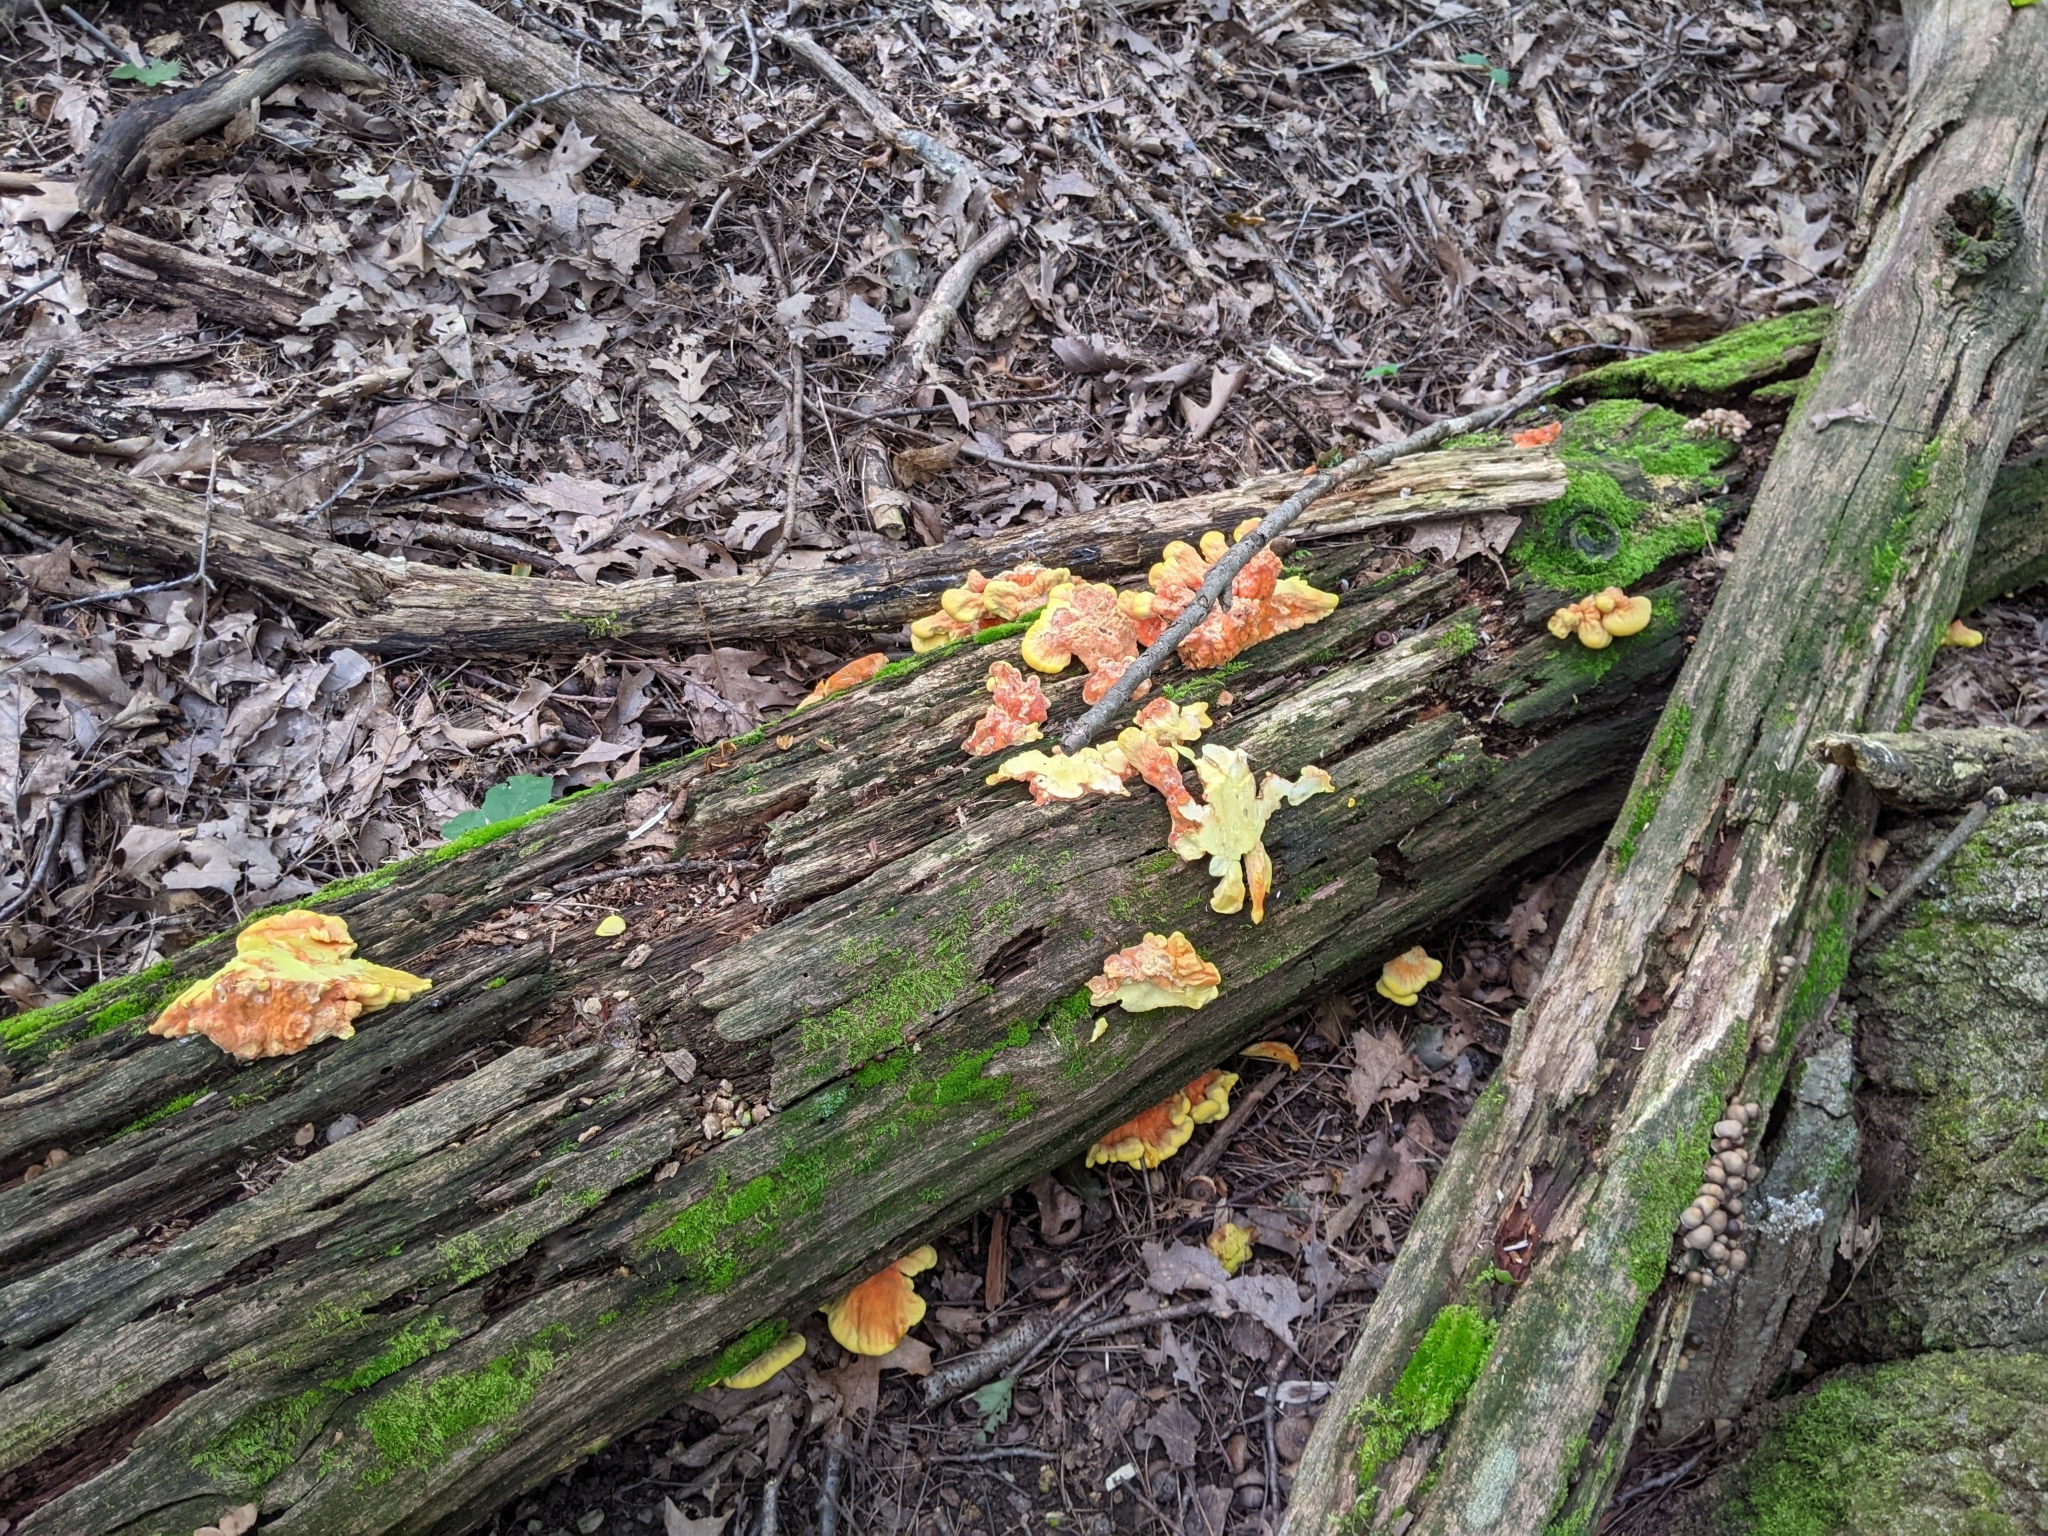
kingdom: Fungi
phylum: Basidiomycota
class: Agaricomycetes
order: Polyporales
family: Laetiporaceae
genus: Laetiporus
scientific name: Laetiporus sulphureus
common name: Chicken of the woods
